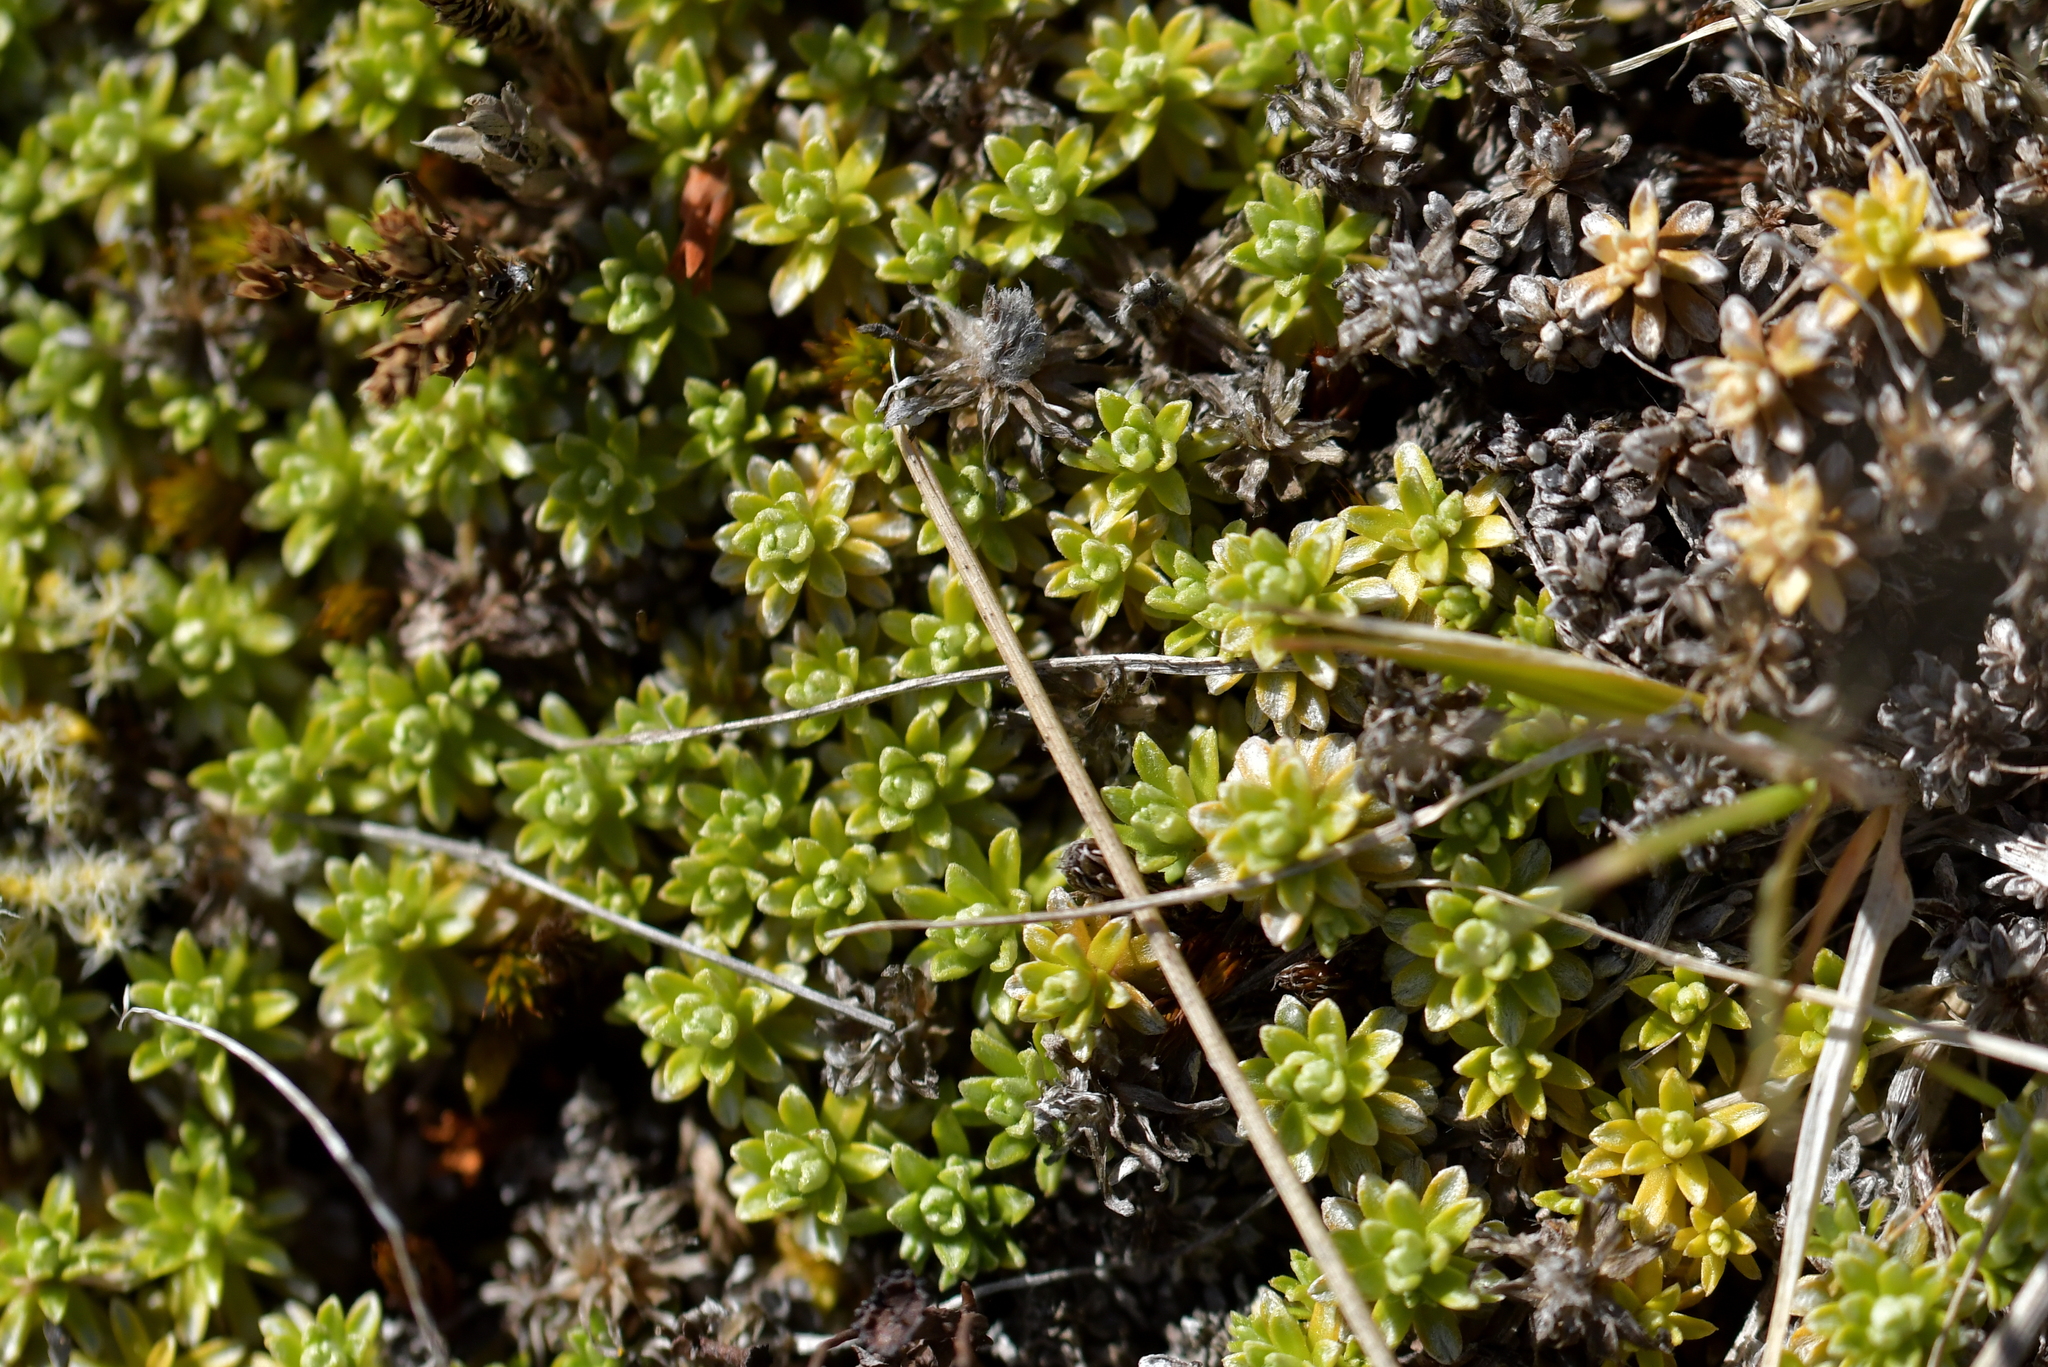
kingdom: Plantae
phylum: Tracheophyta
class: Magnoliopsida
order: Asterales
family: Asteraceae
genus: Raoulia
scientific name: Raoulia subsericea
